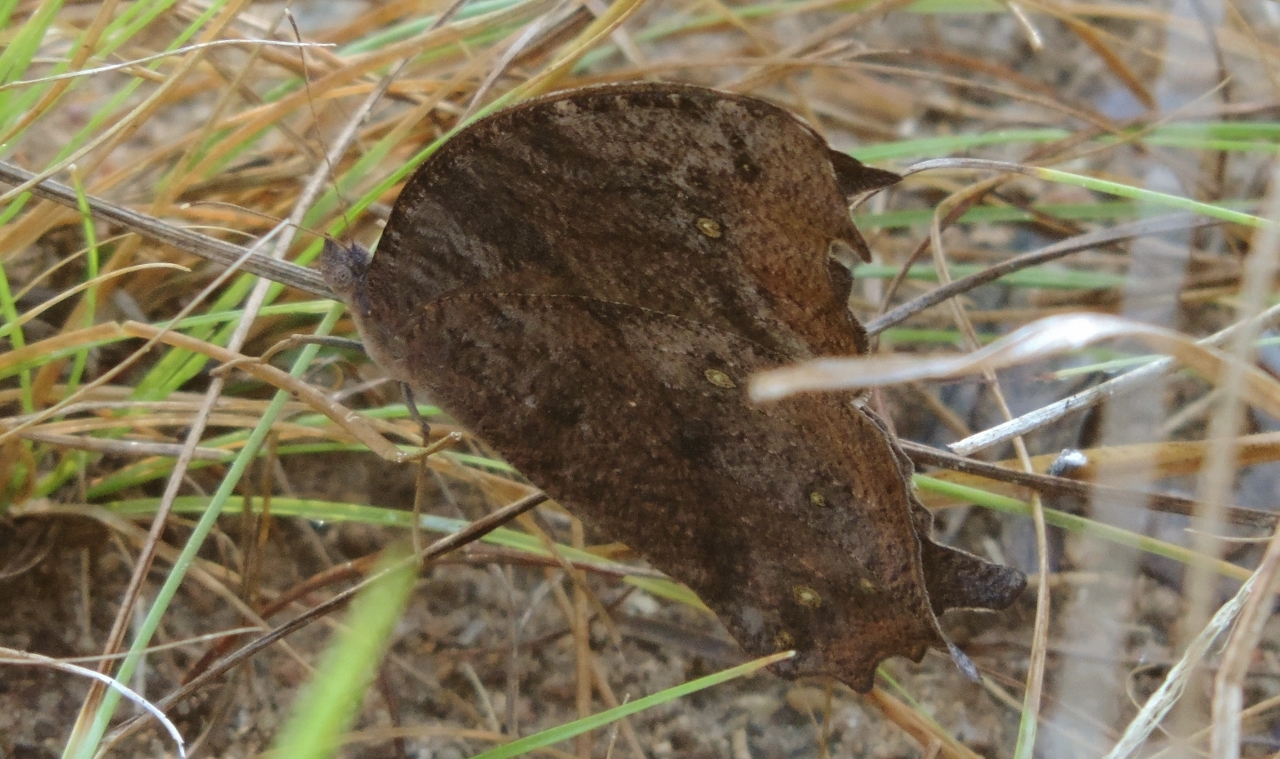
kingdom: Animalia
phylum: Arthropoda
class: Insecta
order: Lepidoptera
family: Nymphalidae
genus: Melanitis
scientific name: Melanitis leda
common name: Twilight brown
